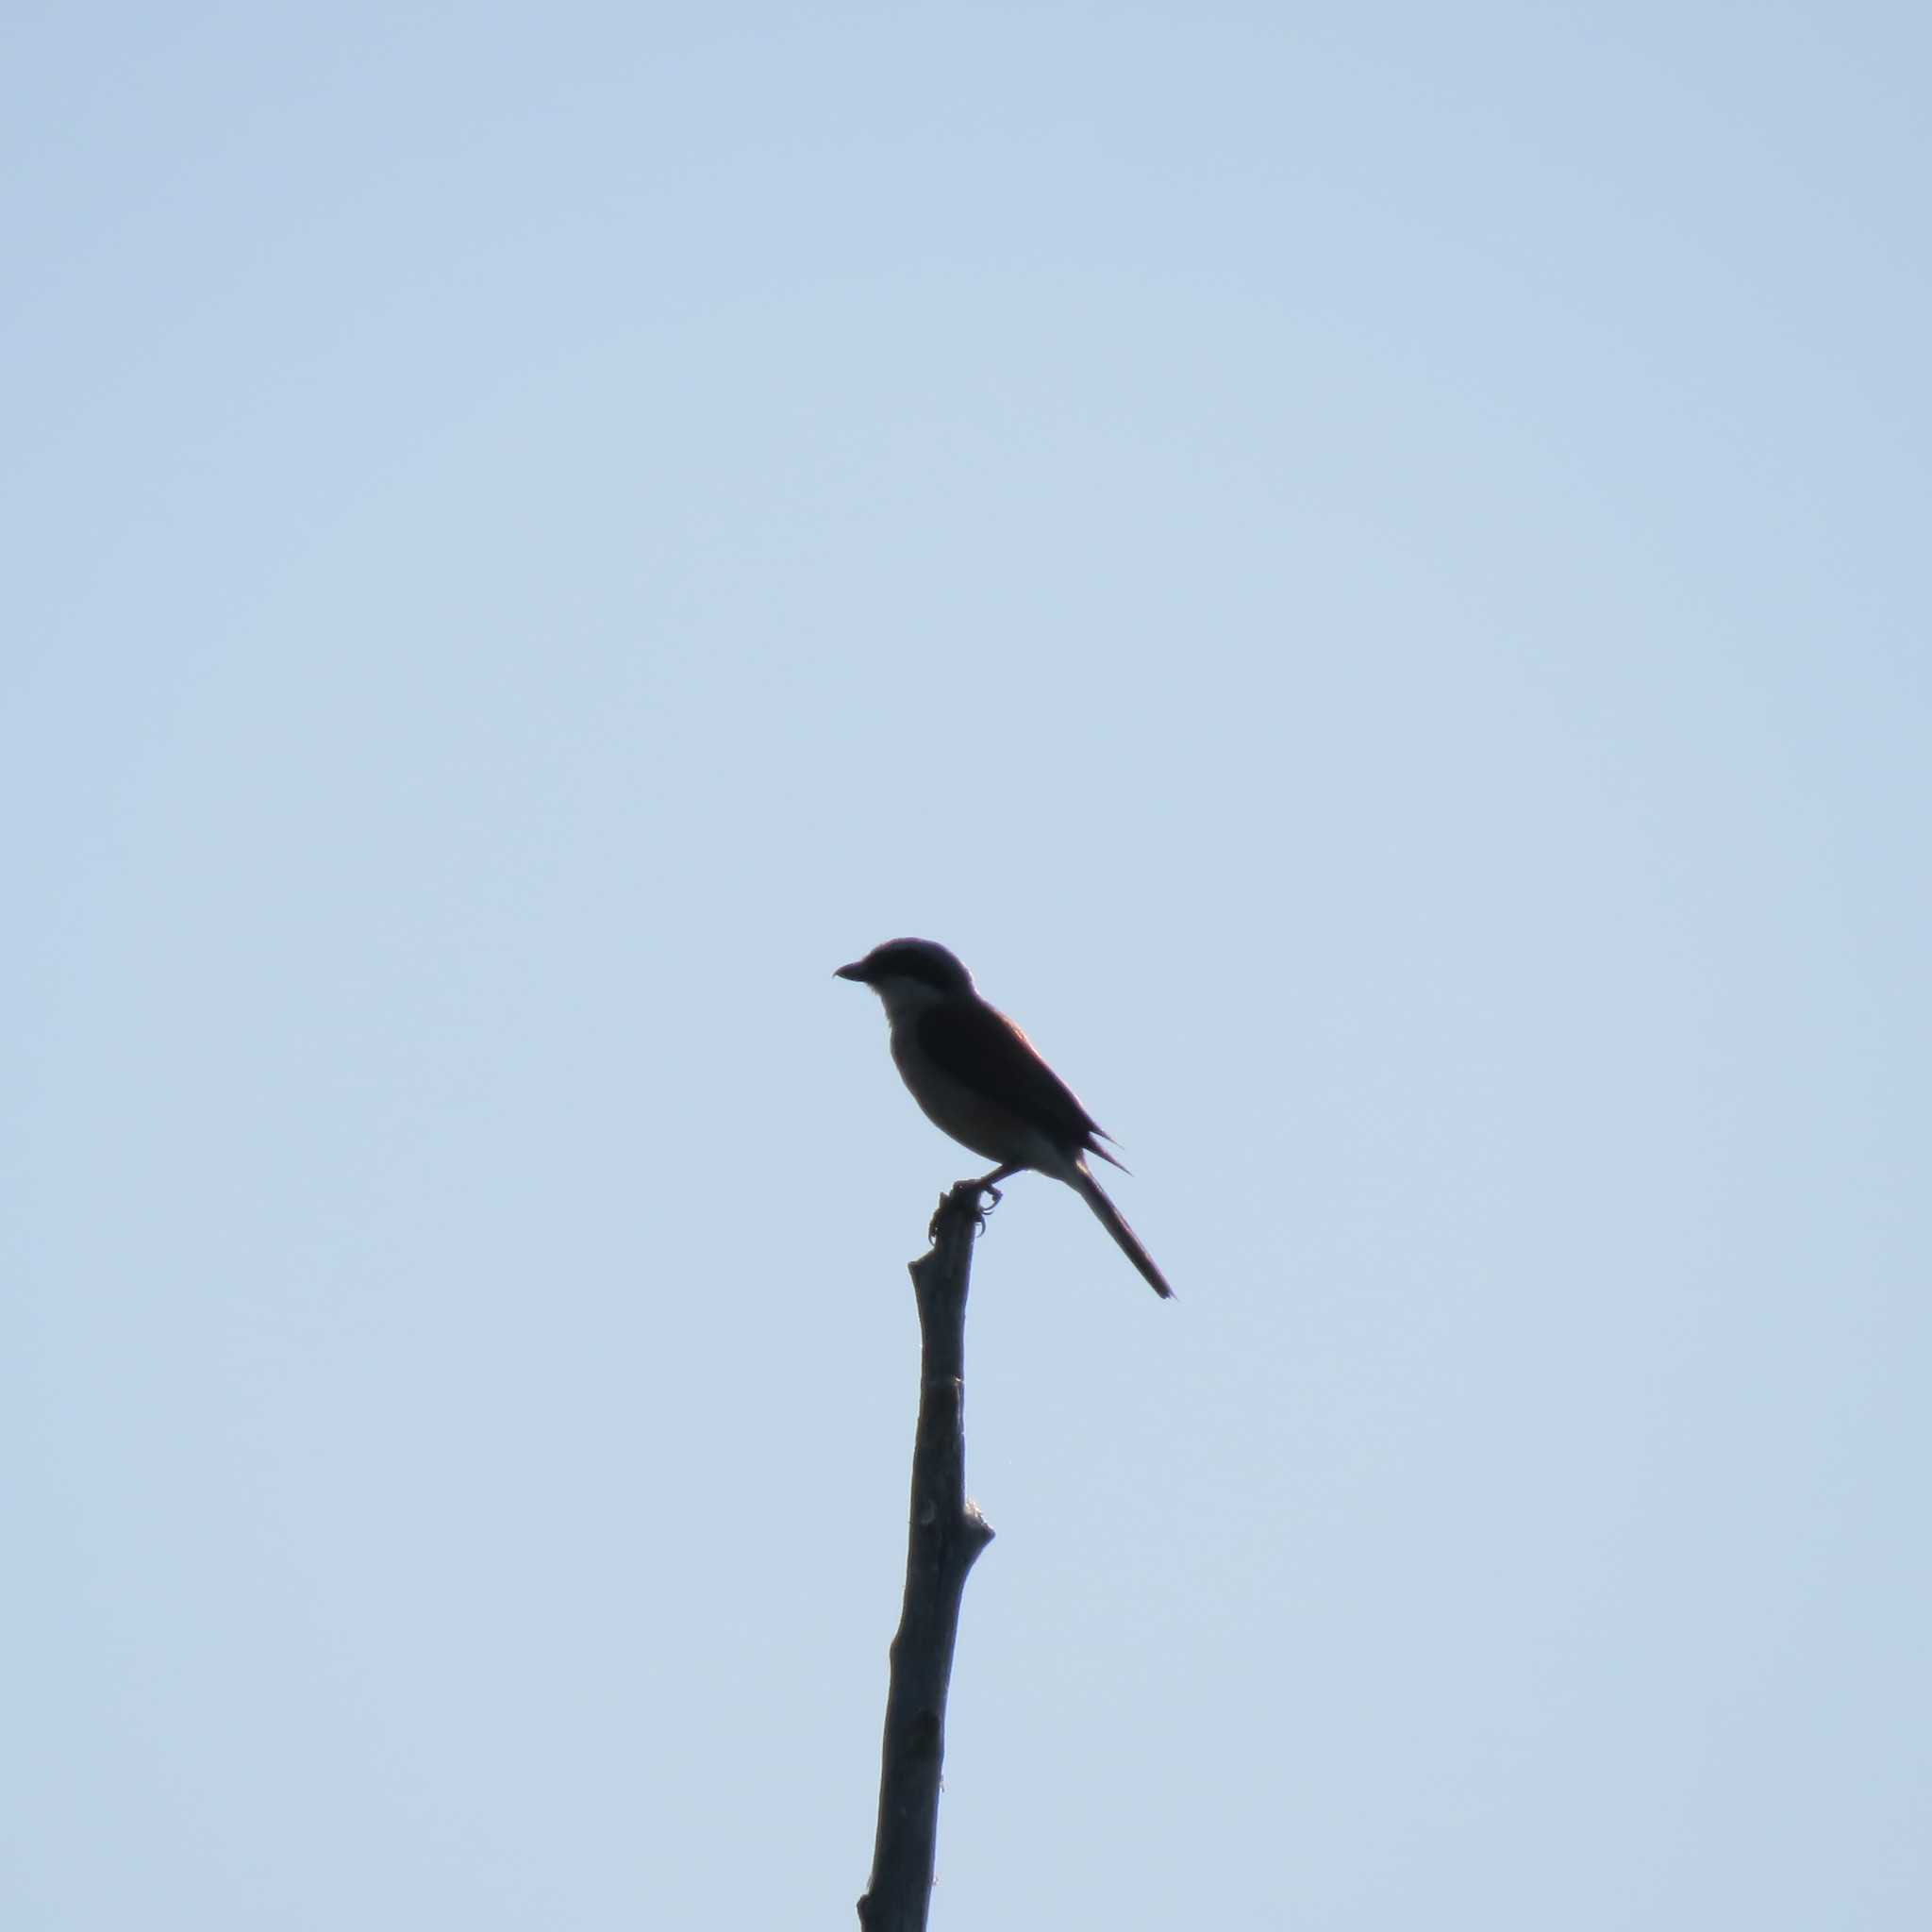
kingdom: Animalia
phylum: Chordata
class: Aves
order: Passeriformes
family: Laniidae
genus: Lanius
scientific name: Lanius collurio
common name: Red-backed shrike
